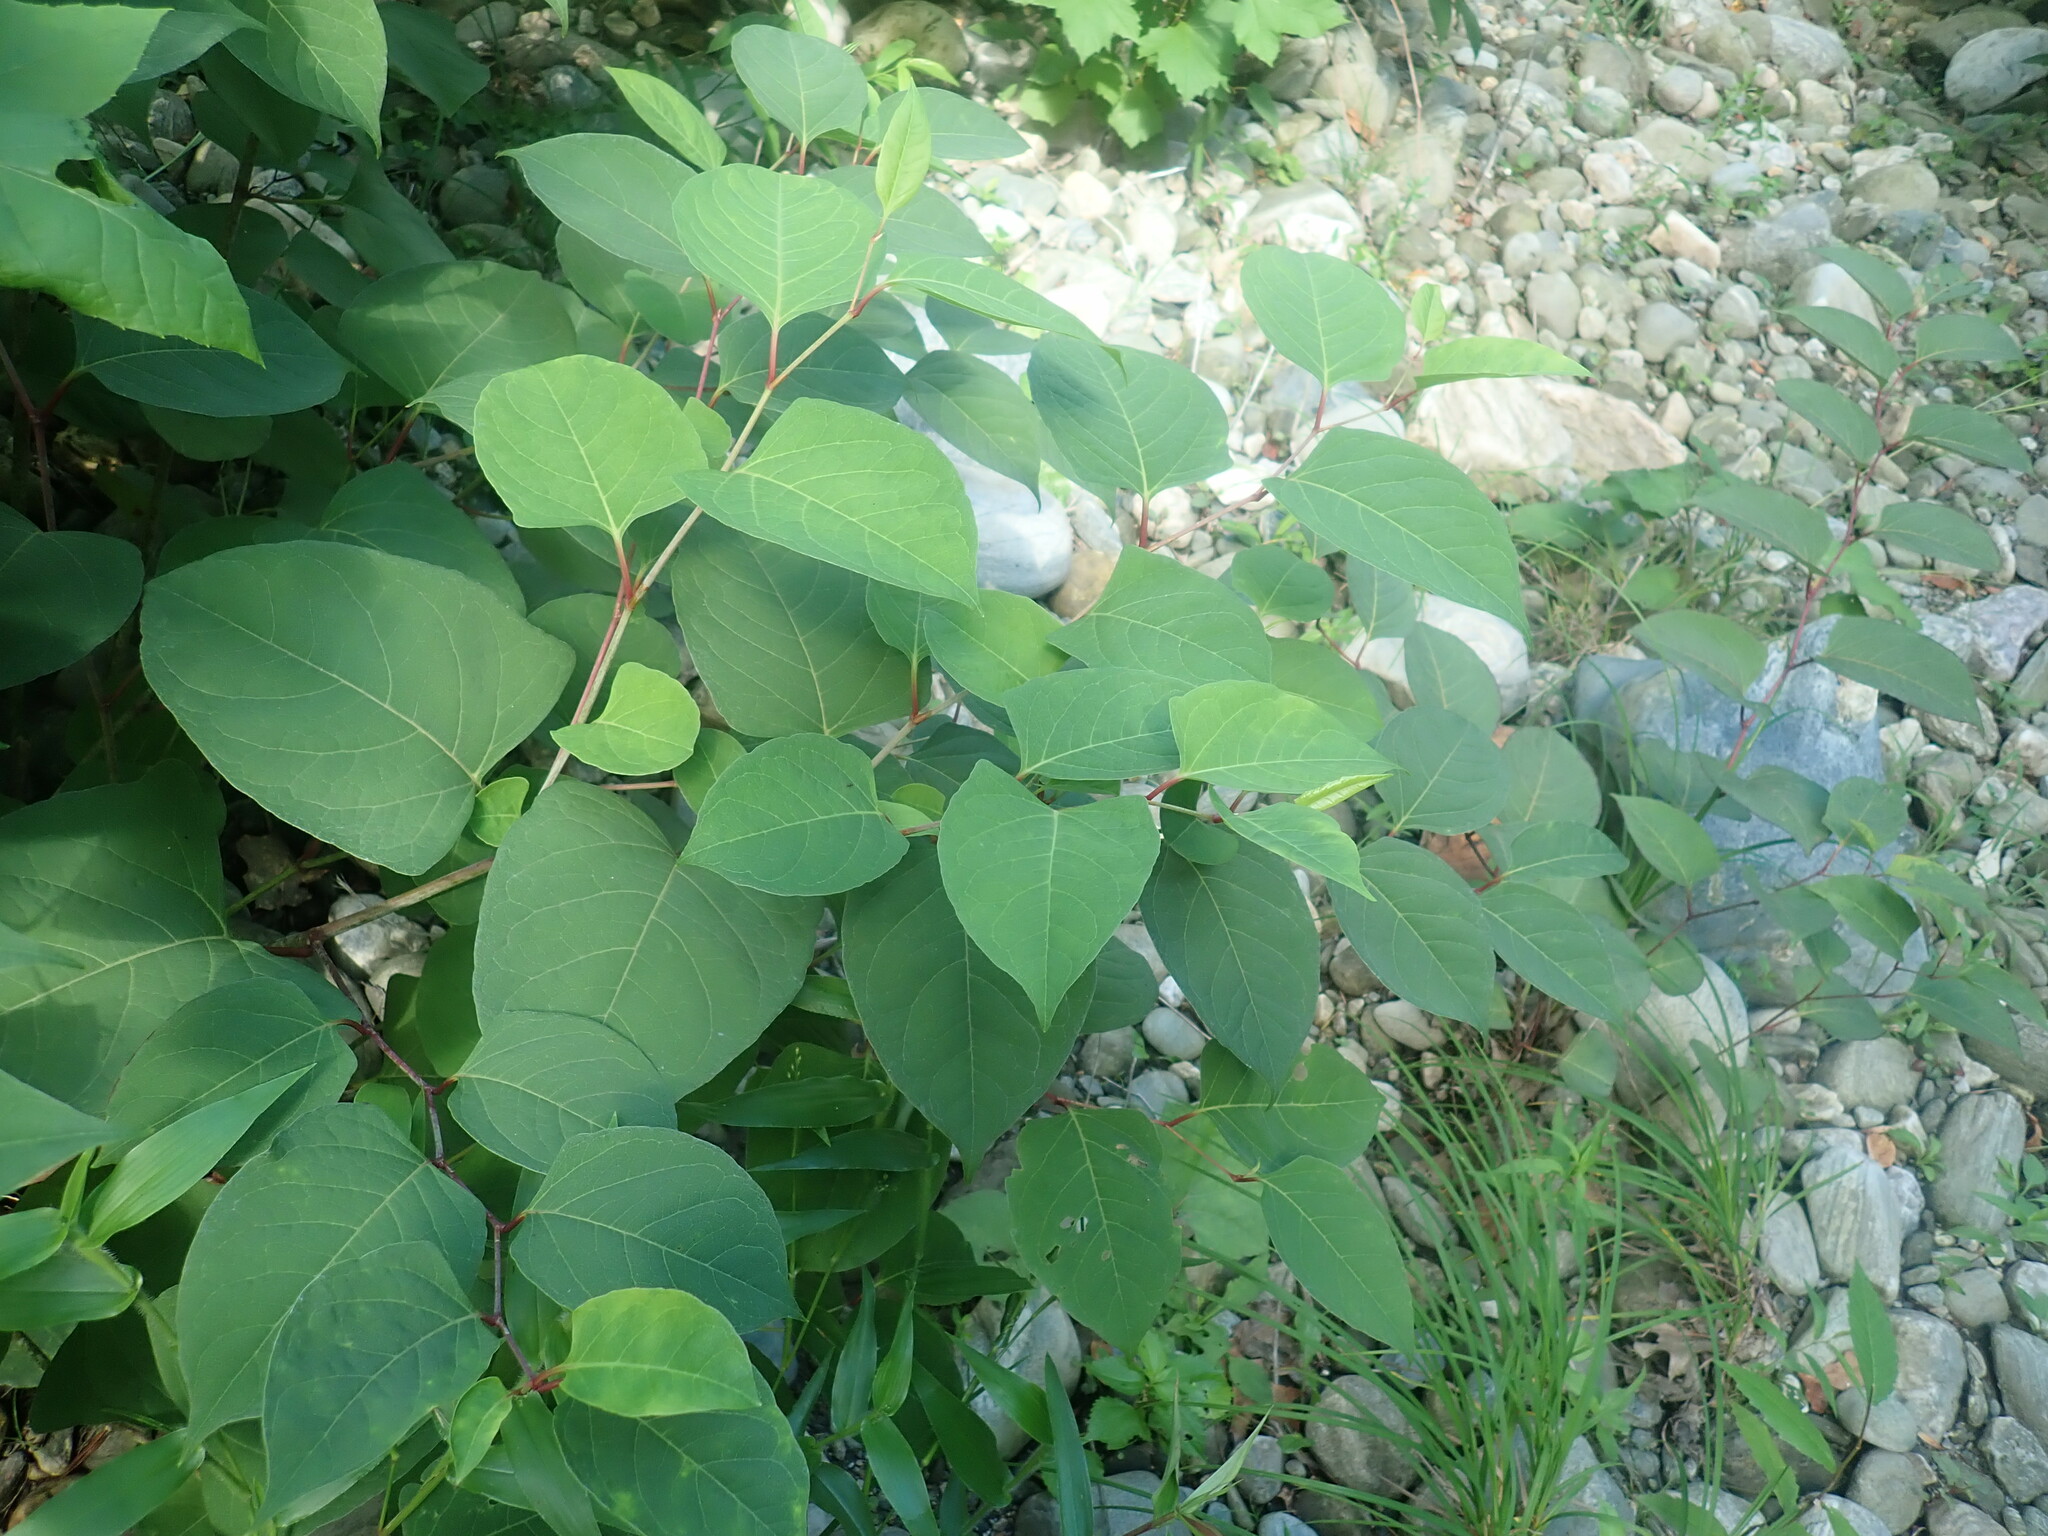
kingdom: Plantae
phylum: Tracheophyta
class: Magnoliopsida
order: Caryophyllales
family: Polygonaceae
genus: Reynoutria
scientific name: Reynoutria japonica
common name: Japanese knotweed
